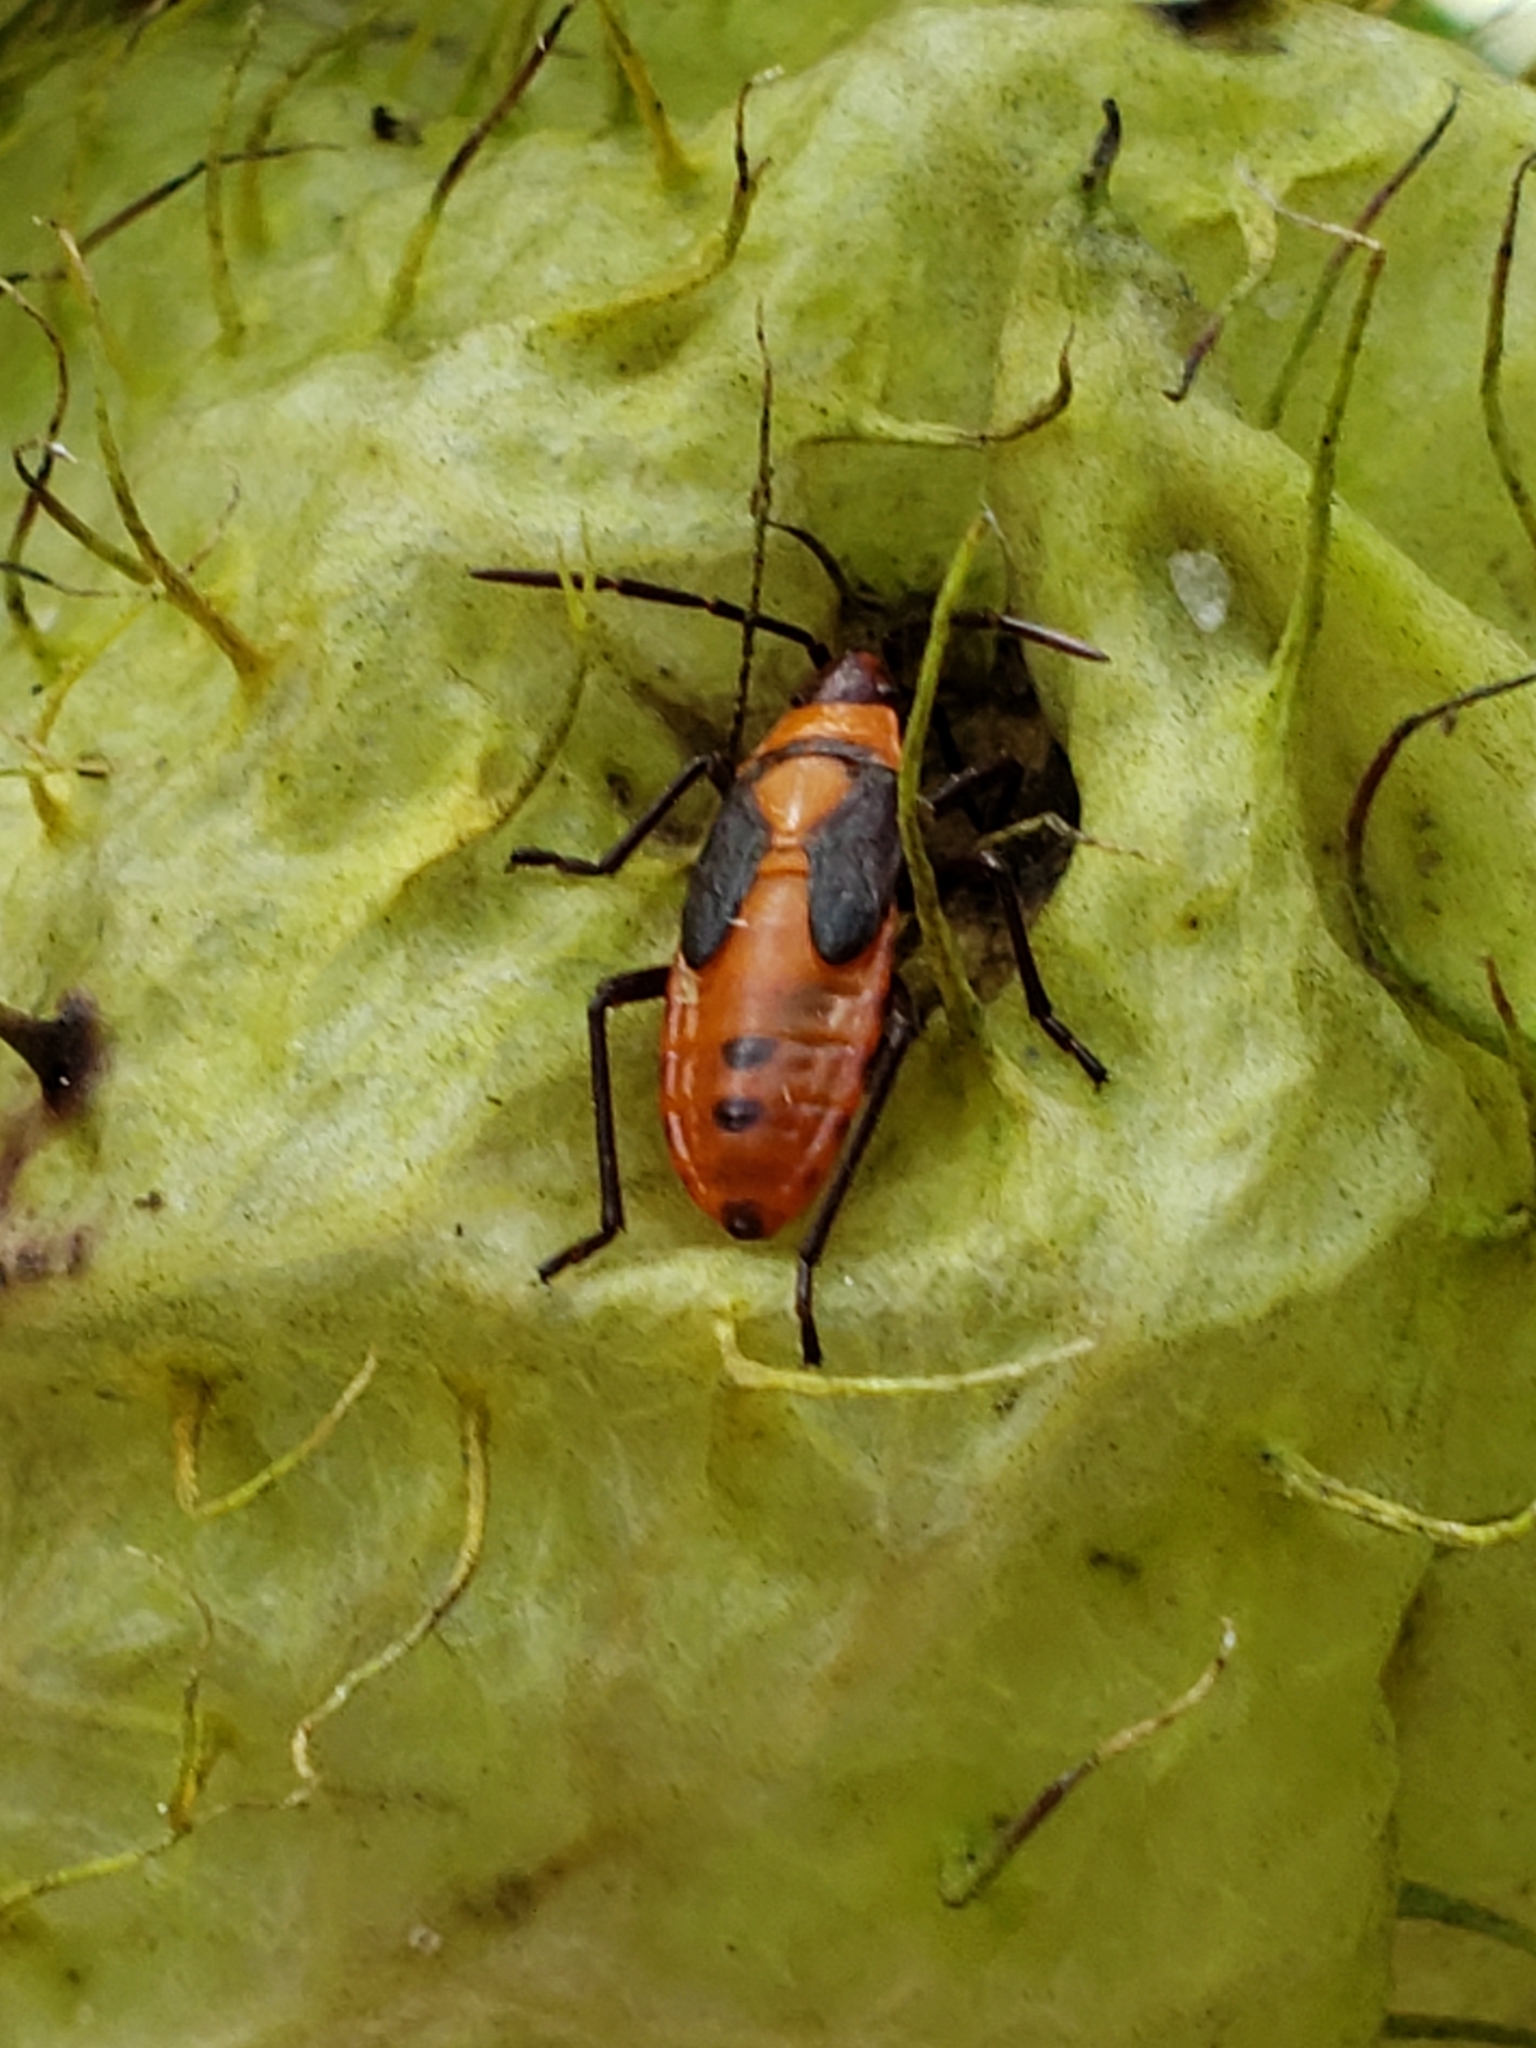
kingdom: Animalia
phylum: Arthropoda
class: Insecta
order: Hemiptera
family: Lygaeidae
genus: Oncopeltus
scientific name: Oncopeltus fasciatus
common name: Large milkweed bug
